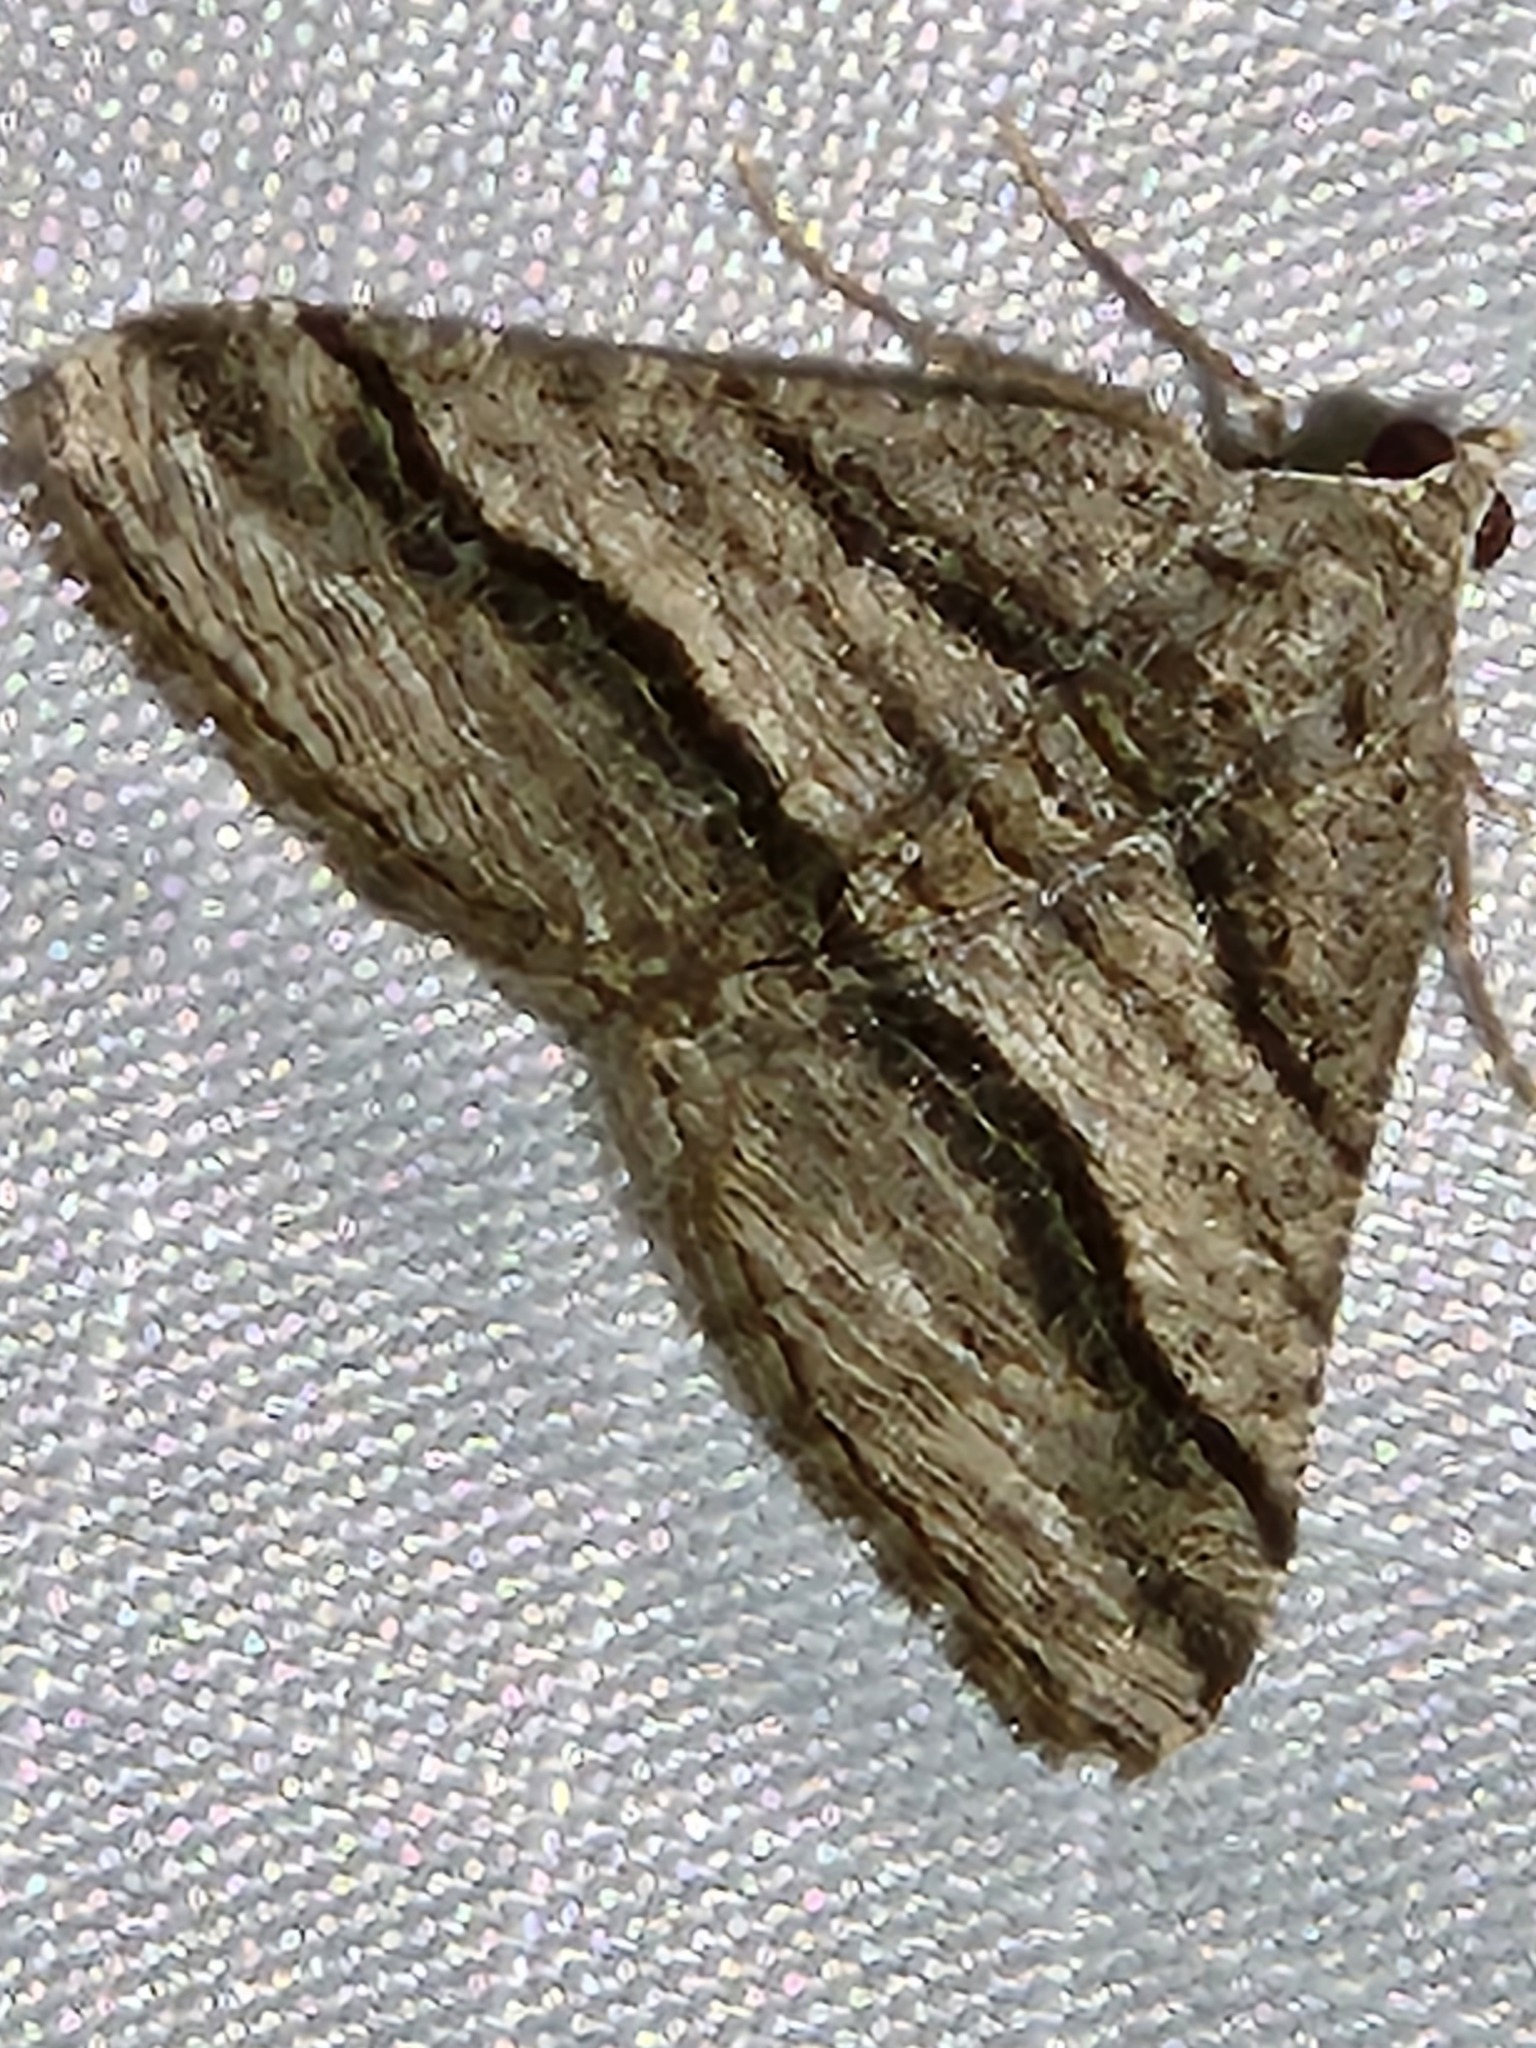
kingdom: Animalia
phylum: Arthropoda
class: Insecta
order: Lepidoptera
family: Geometridae
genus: Digrammia
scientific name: Digrammia atrofasciata
